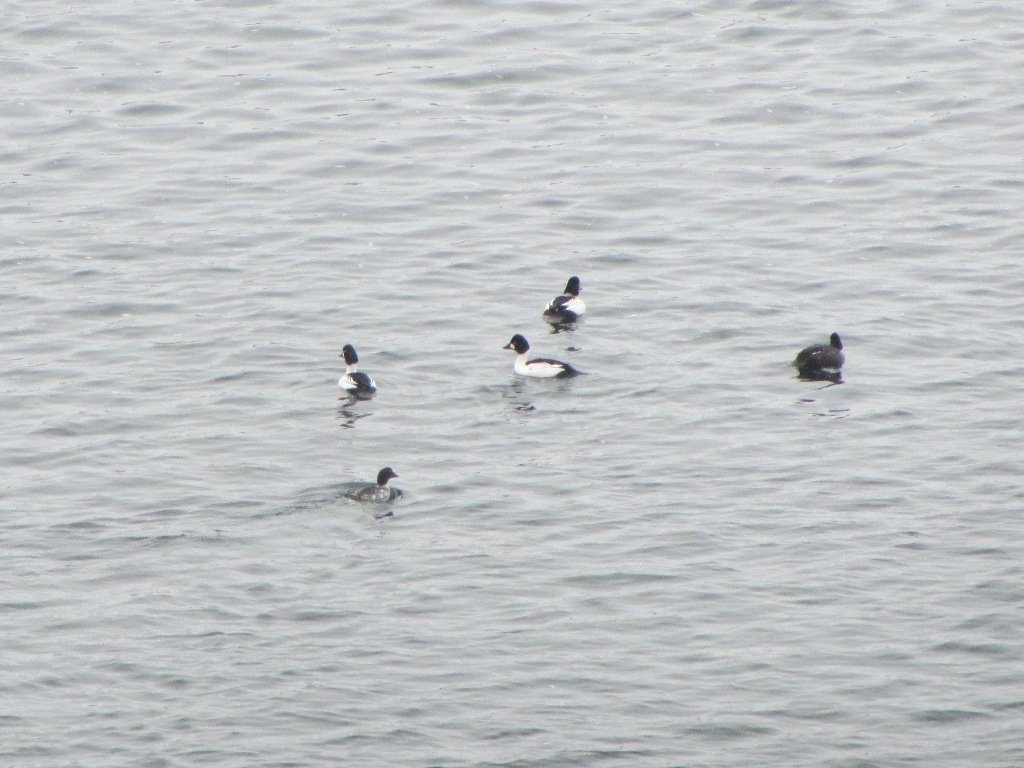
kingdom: Animalia
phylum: Chordata
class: Aves
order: Anseriformes
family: Anatidae
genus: Bucephala
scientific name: Bucephala clangula
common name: Common goldeneye
